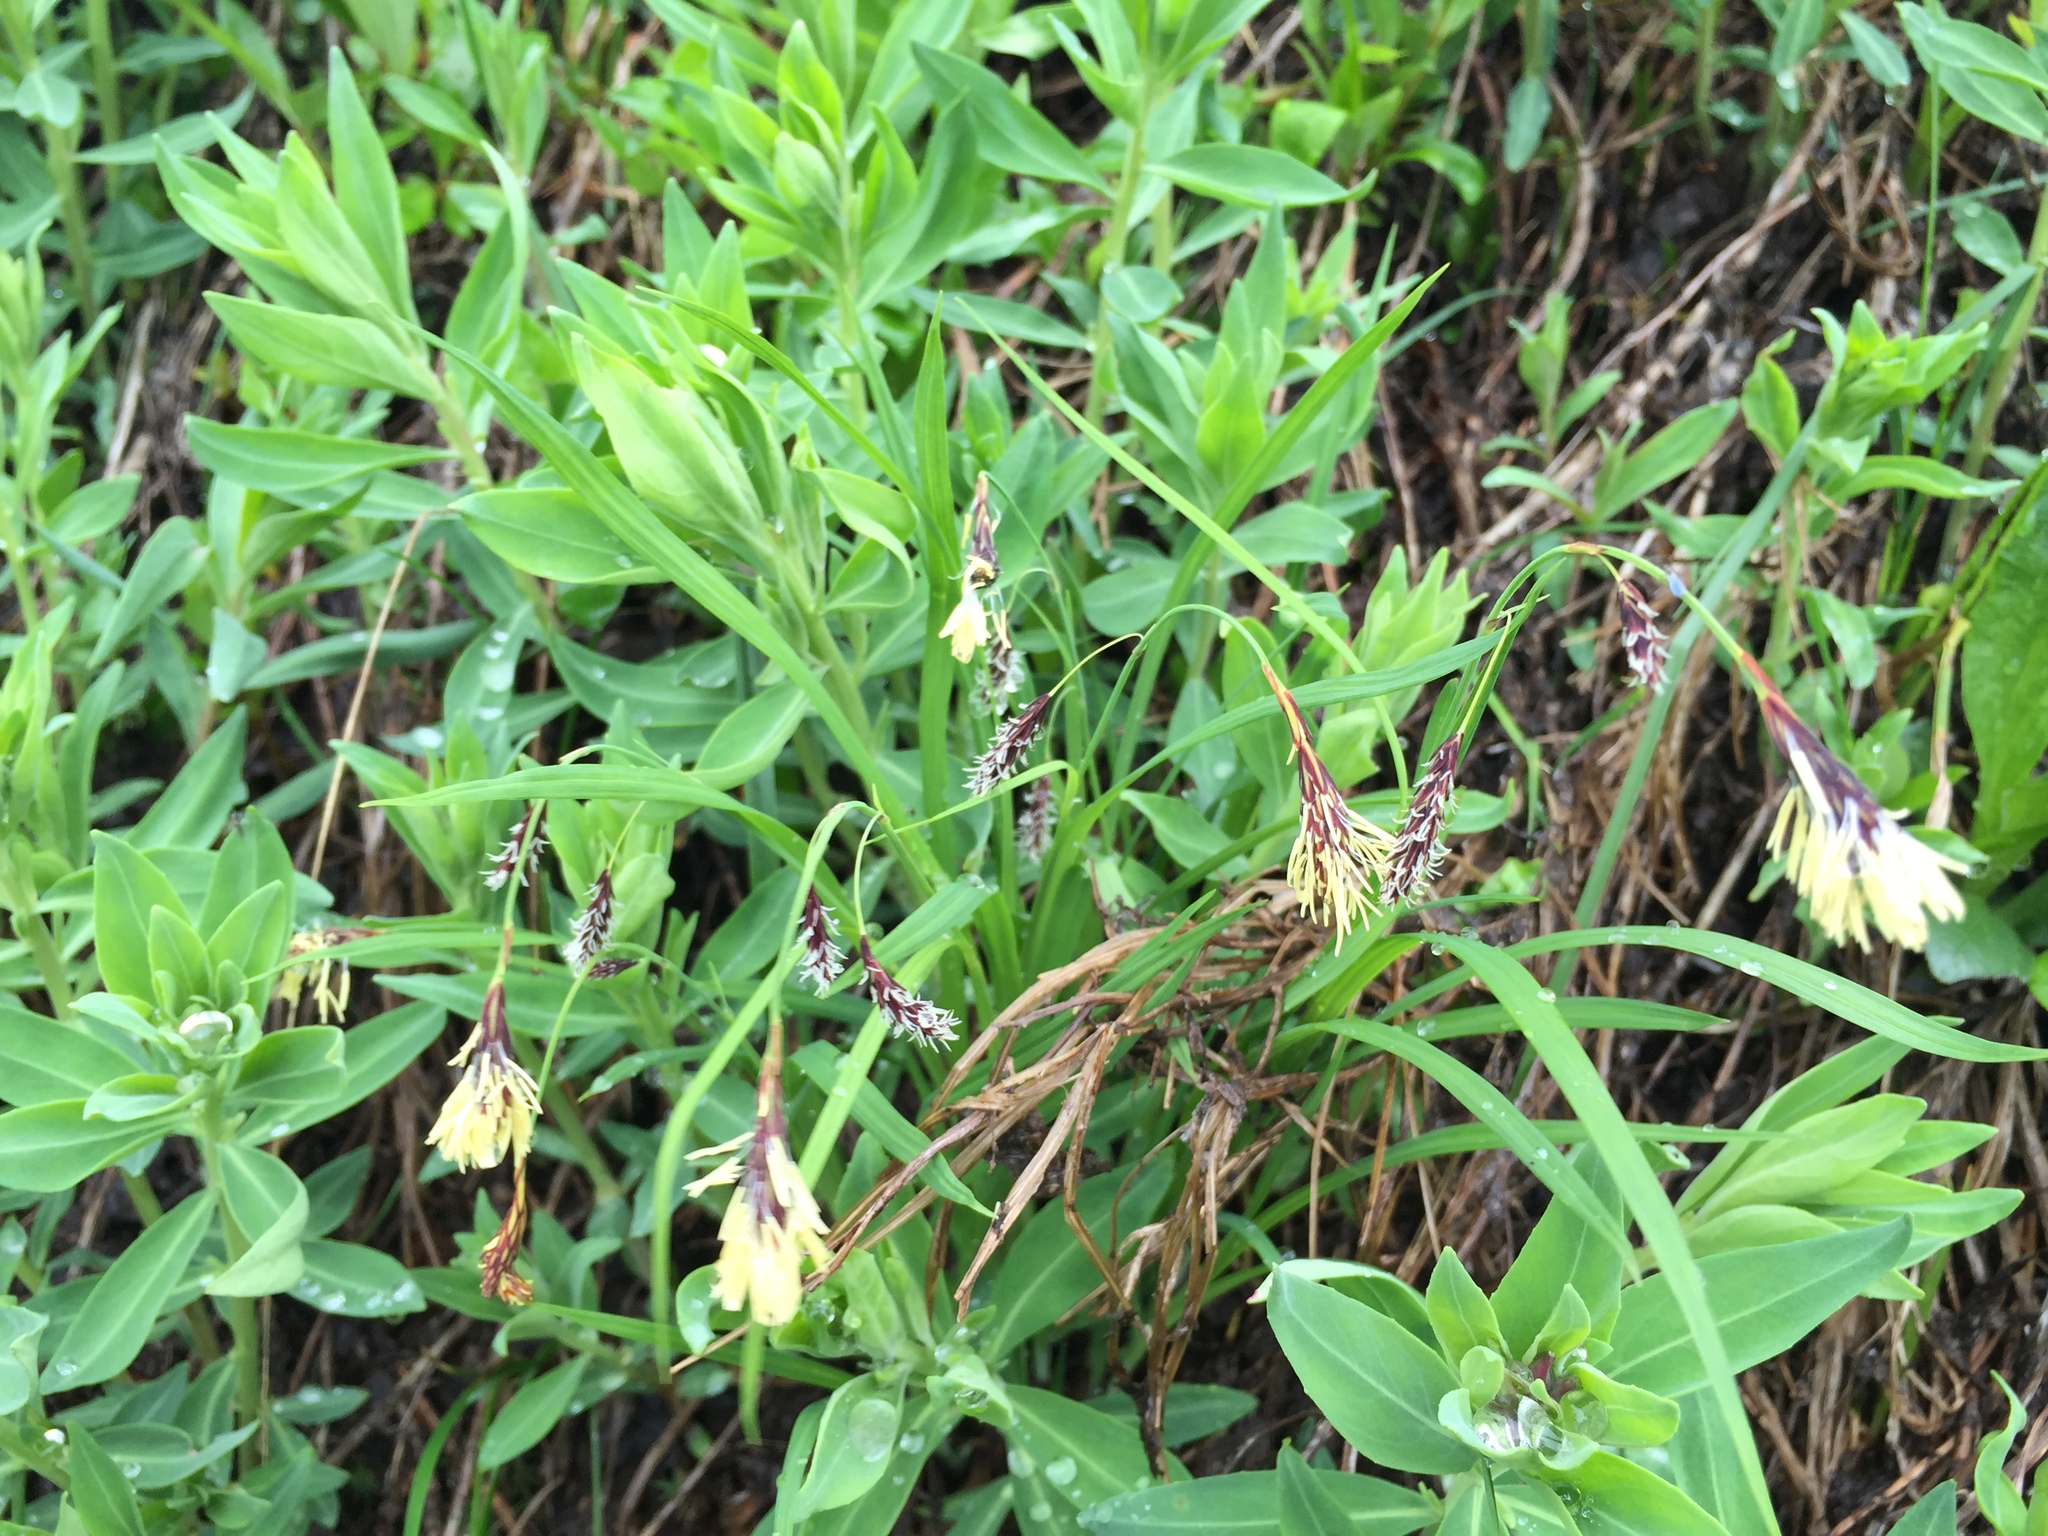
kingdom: Plantae
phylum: Tracheophyta
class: Liliopsida
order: Poales
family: Cyperaceae
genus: Carex
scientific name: Carex podocarpa
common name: Alpine sedge
